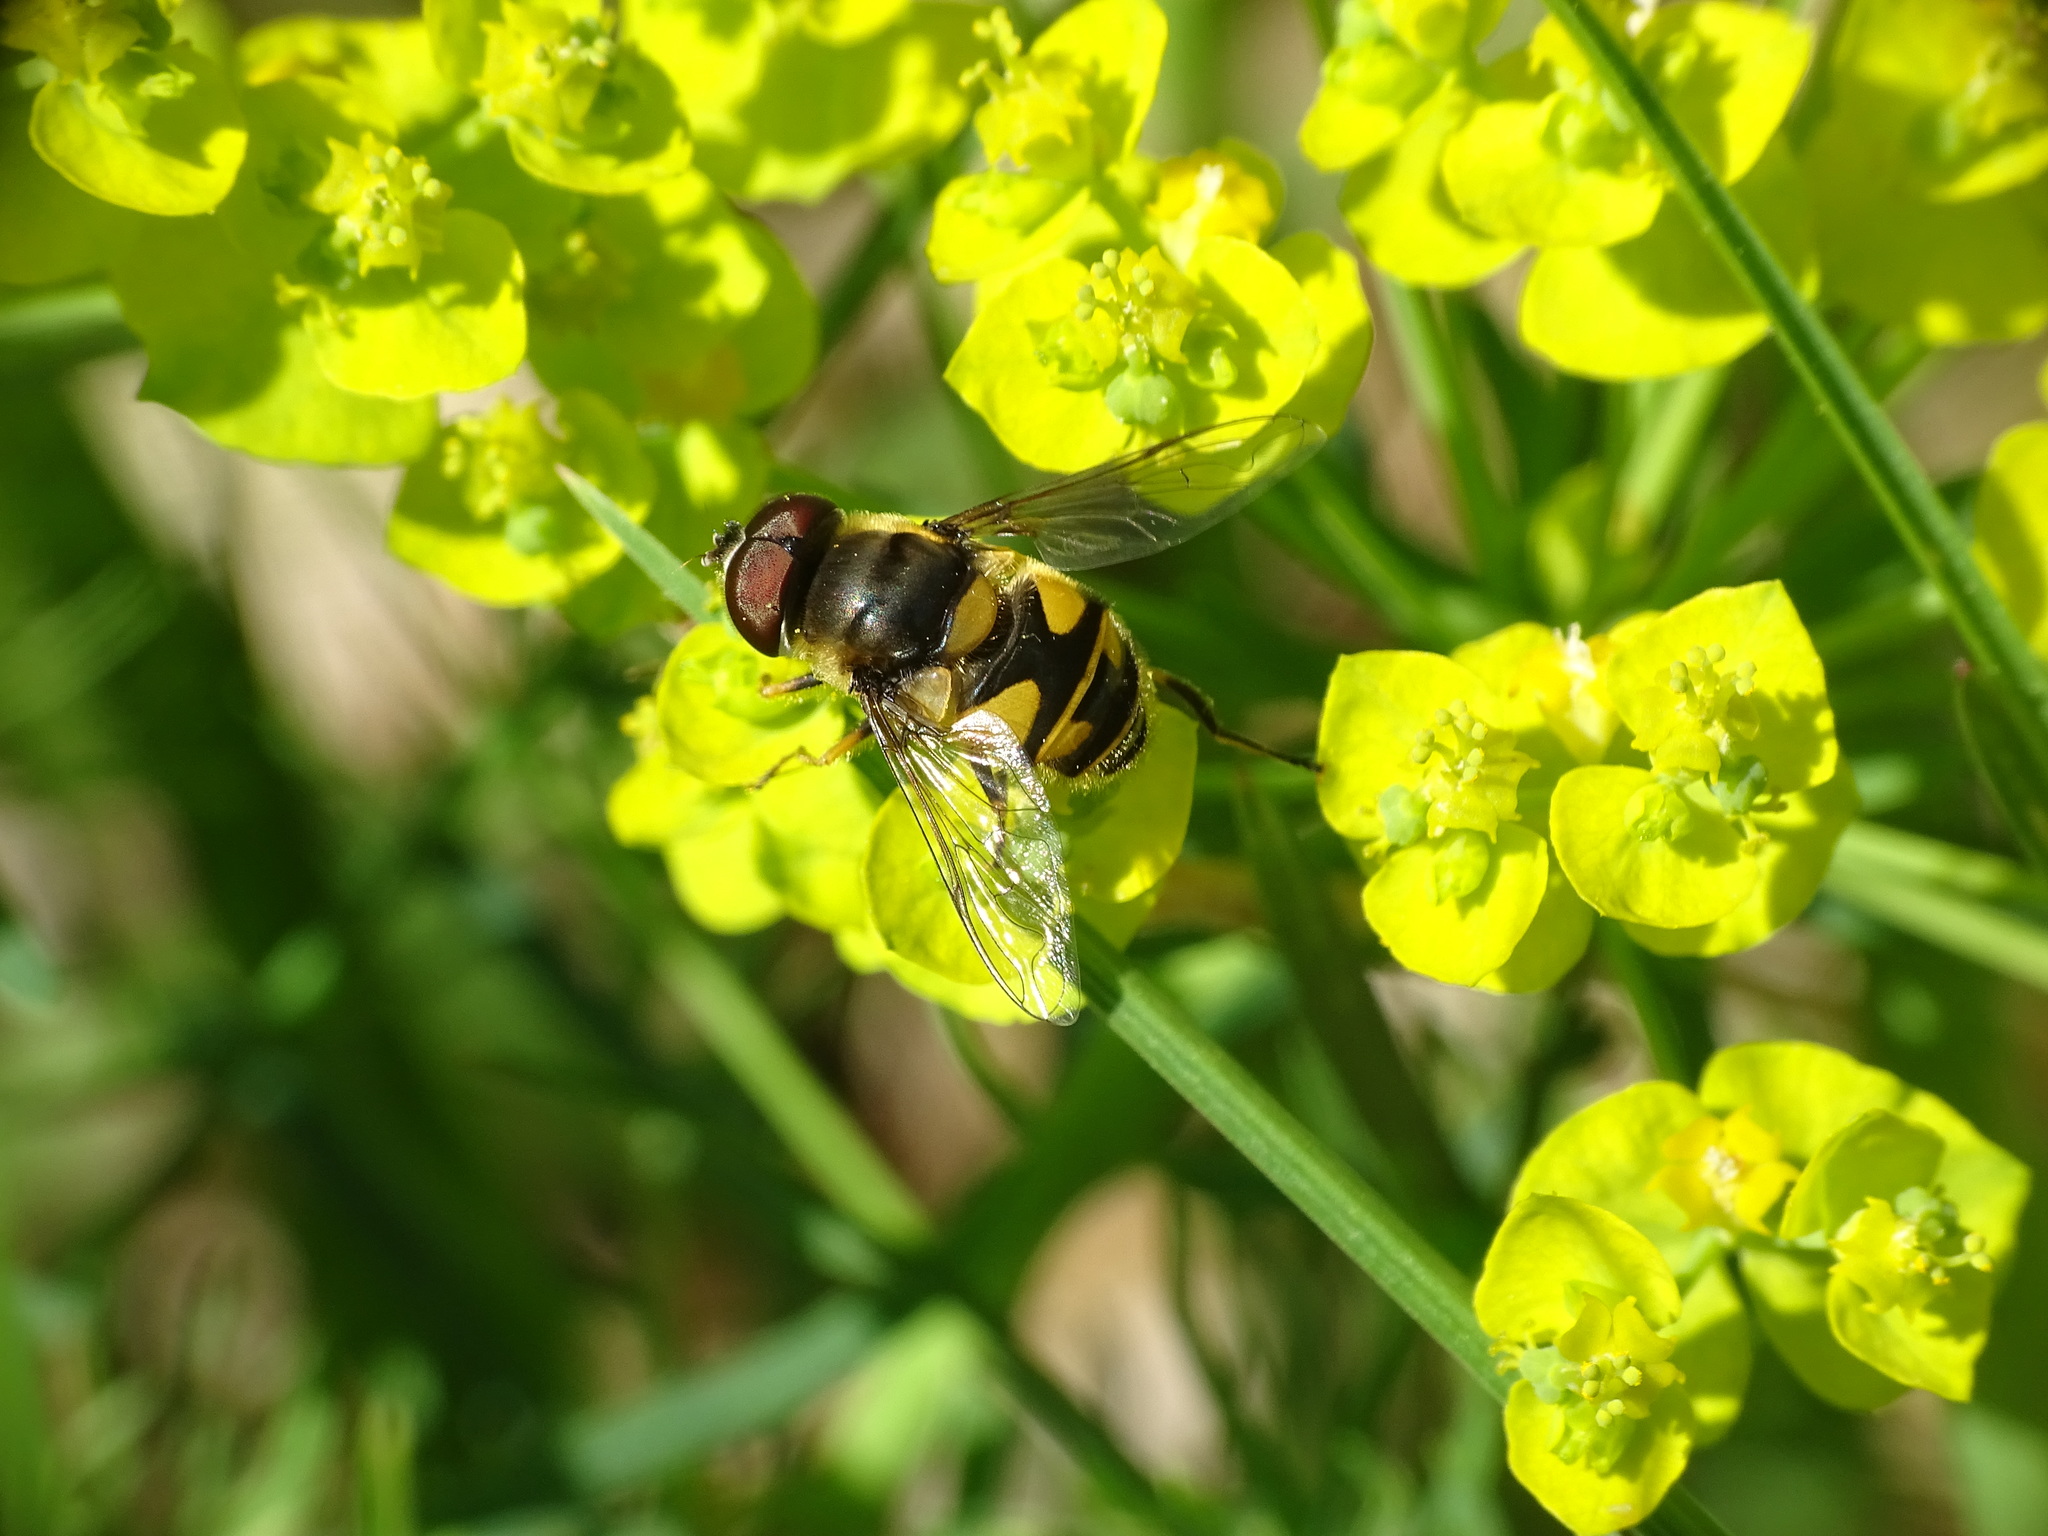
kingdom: Animalia
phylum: Arthropoda
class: Insecta
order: Diptera
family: Syrphidae
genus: Eristalis
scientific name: Eristalis transversa
